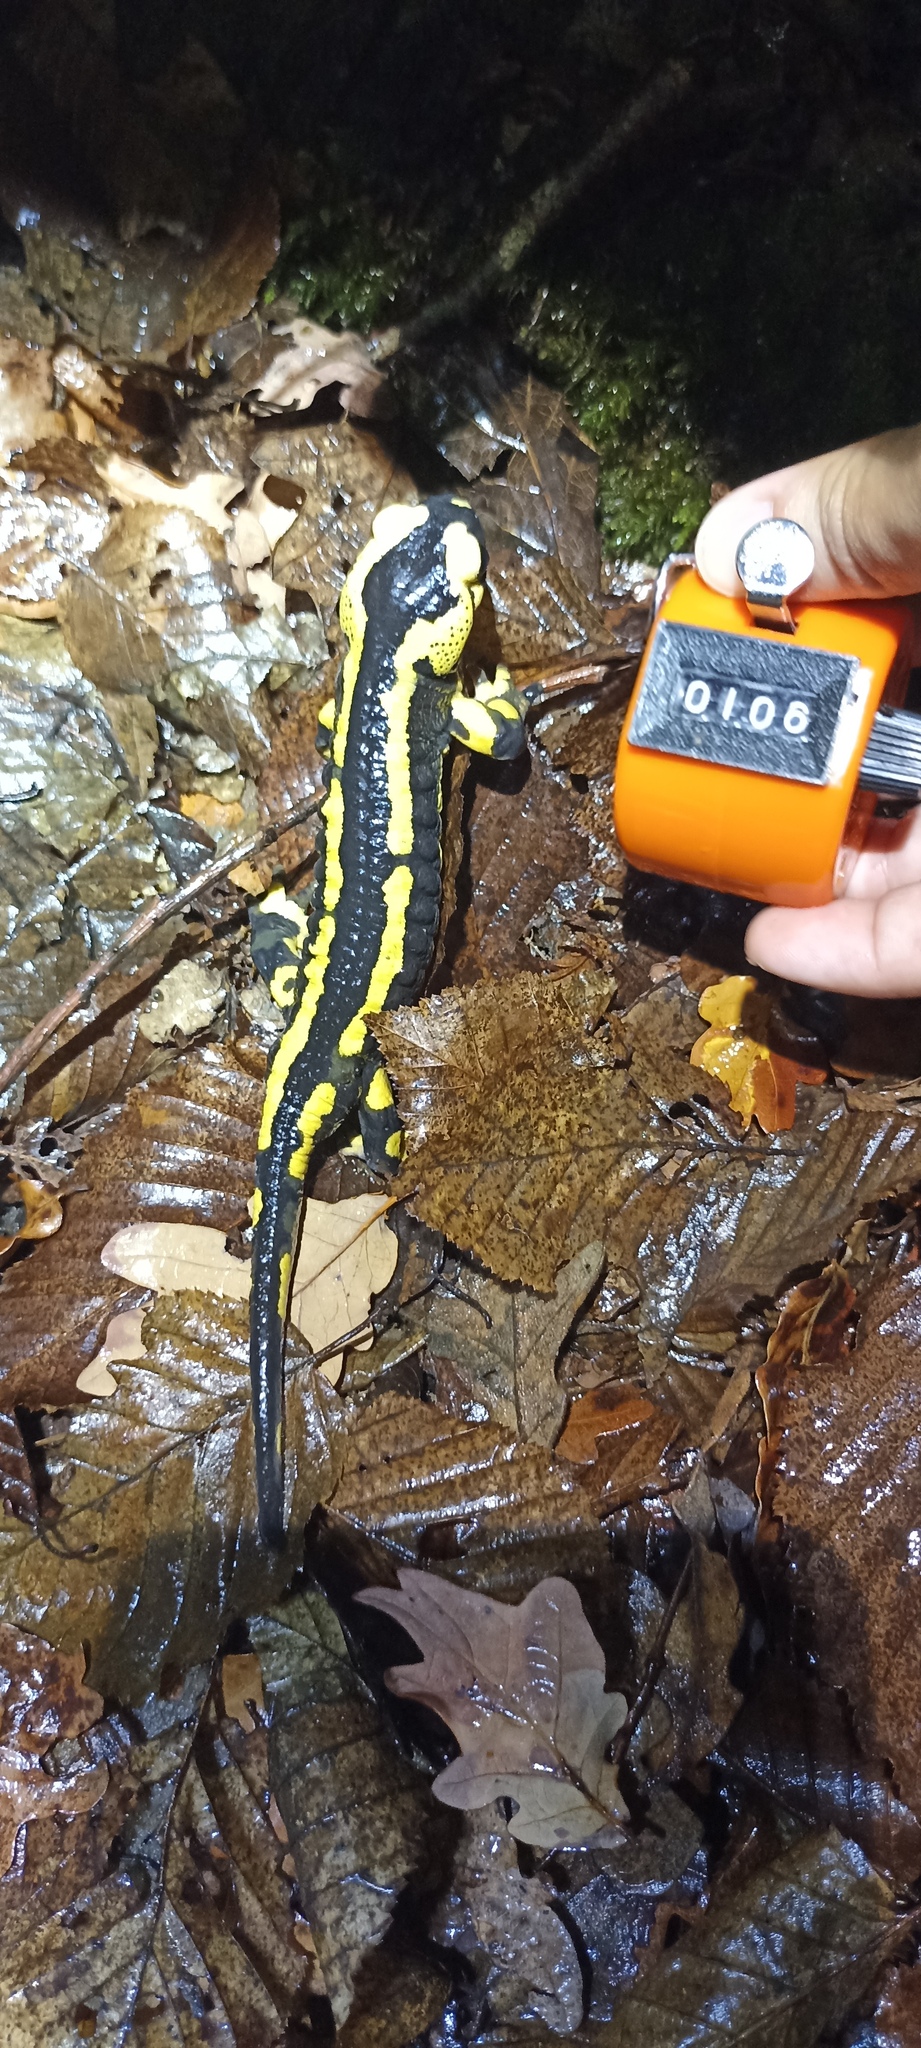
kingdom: Animalia
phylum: Chordata
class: Amphibia
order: Caudata
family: Salamandridae
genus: Salamandra
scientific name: Salamandra salamandra
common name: Fire salamander
